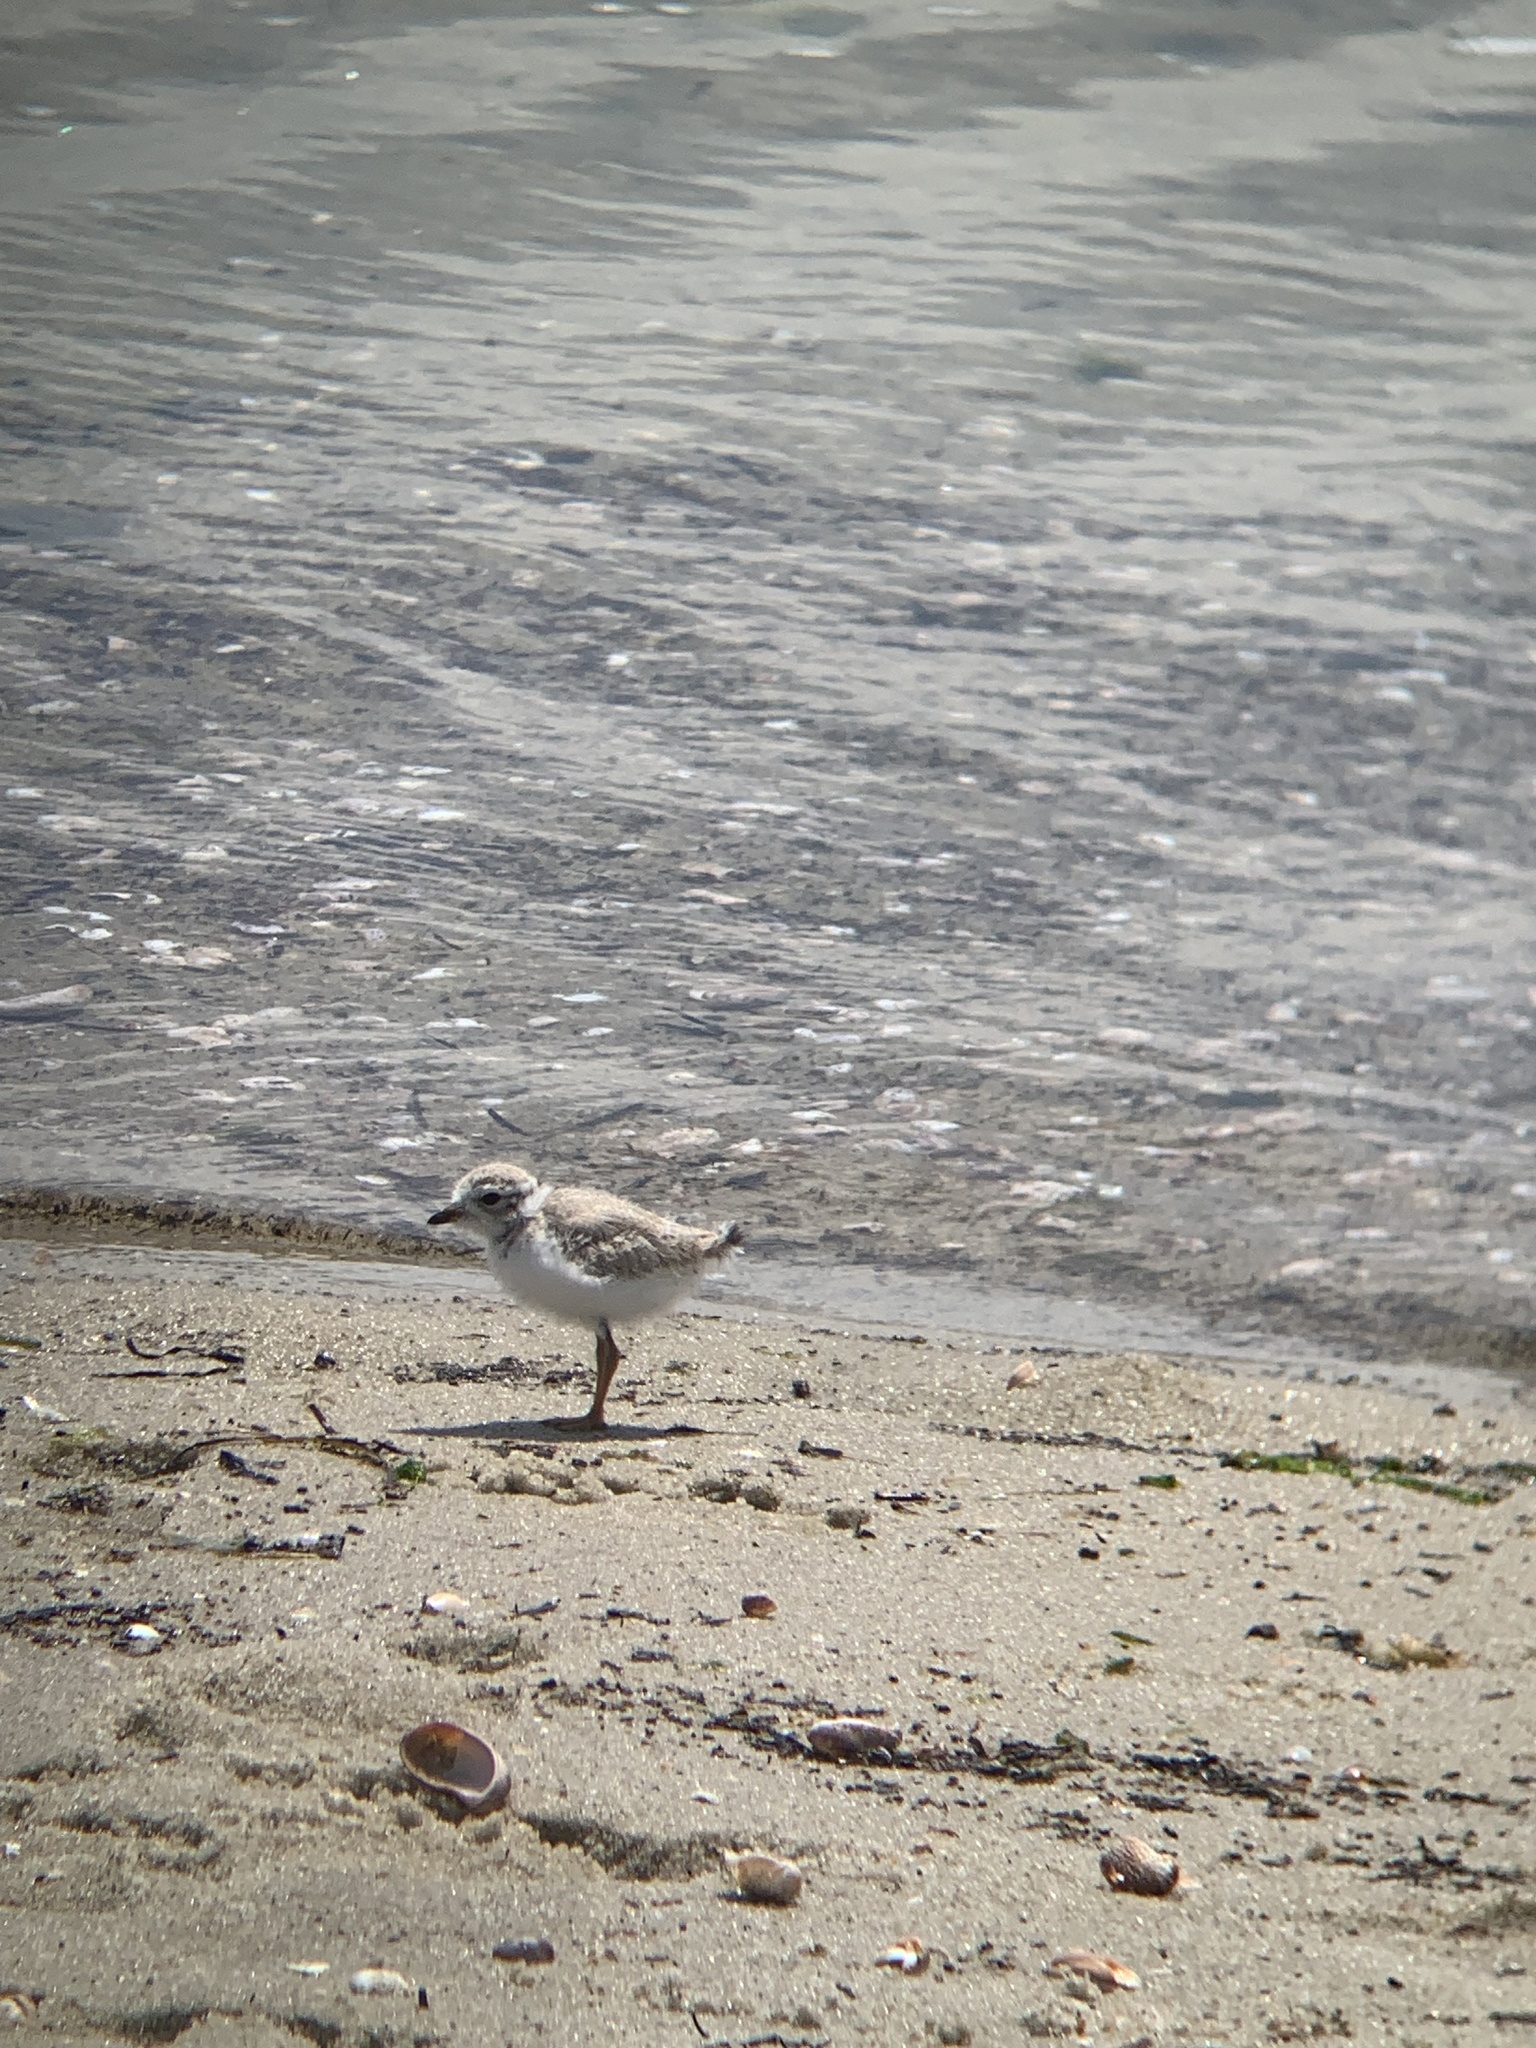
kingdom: Animalia
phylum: Chordata
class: Aves
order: Charadriiformes
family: Charadriidae
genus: Charadrius
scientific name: Charadrius melodus
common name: Piping plover
